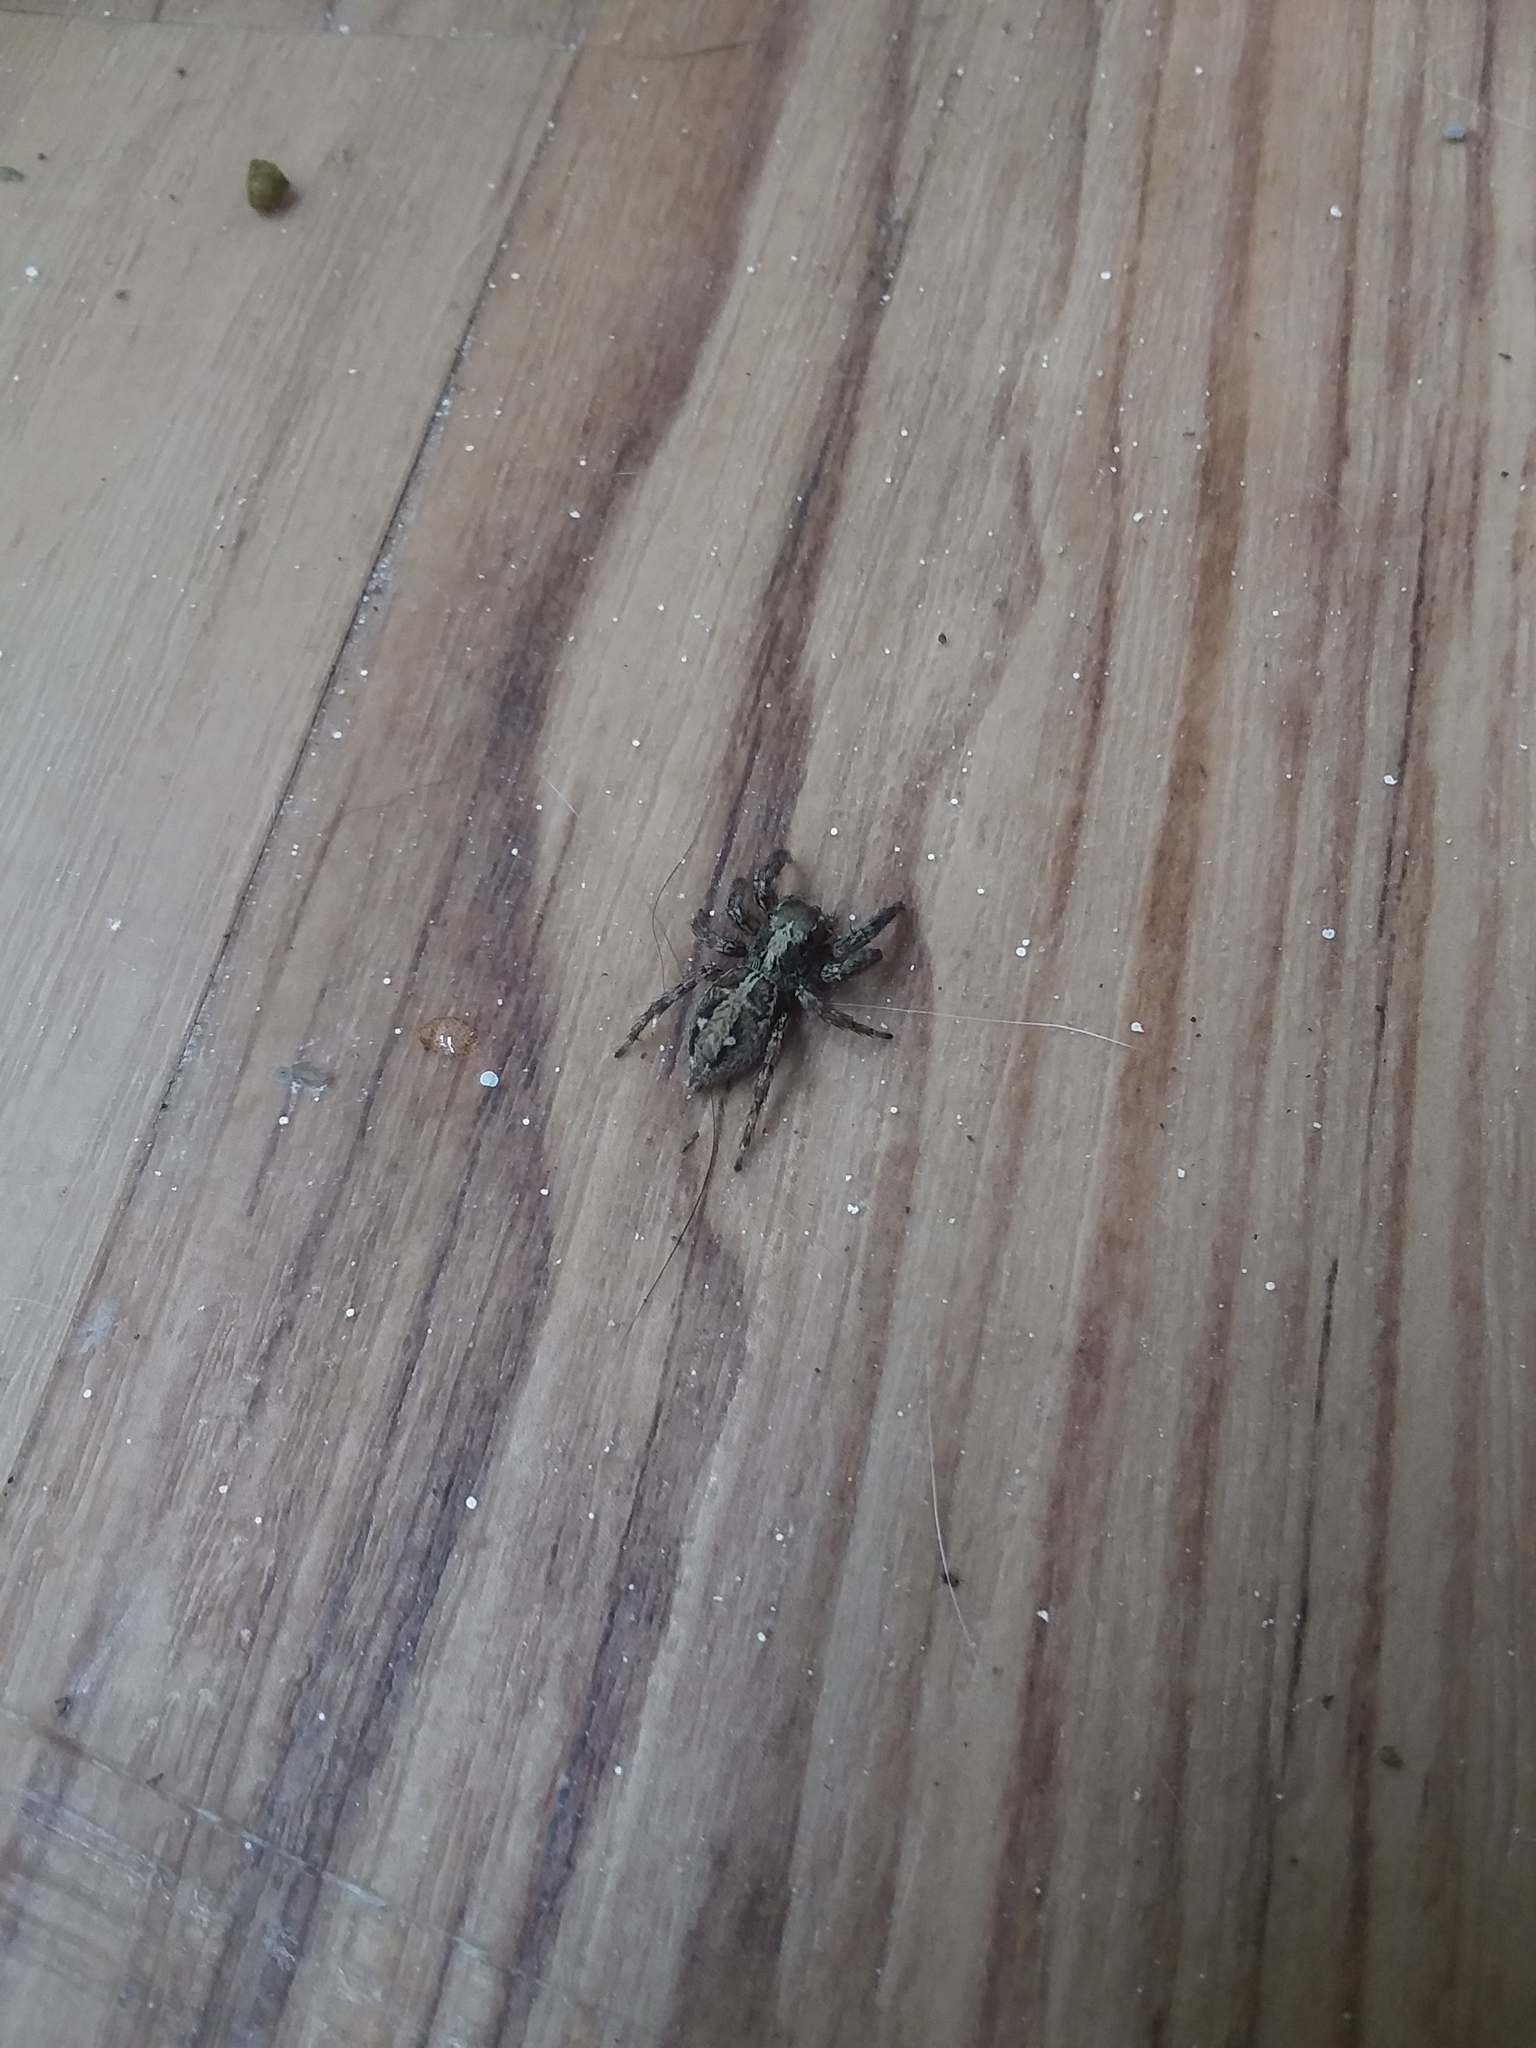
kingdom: Animalia
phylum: Arthropoda
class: Arachnida
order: Araneae
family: Salticidae
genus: Plexippus
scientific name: Plexippus paykulli
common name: Pantropical jumper
